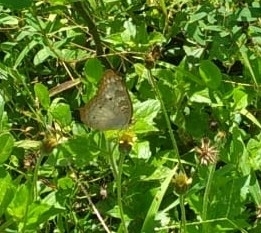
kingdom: Animalia
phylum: Arthropoda
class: Insecta
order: Lepidoptera
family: Nymphalidae
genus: Anartia
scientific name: Anartia jatrophae
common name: White peacock
